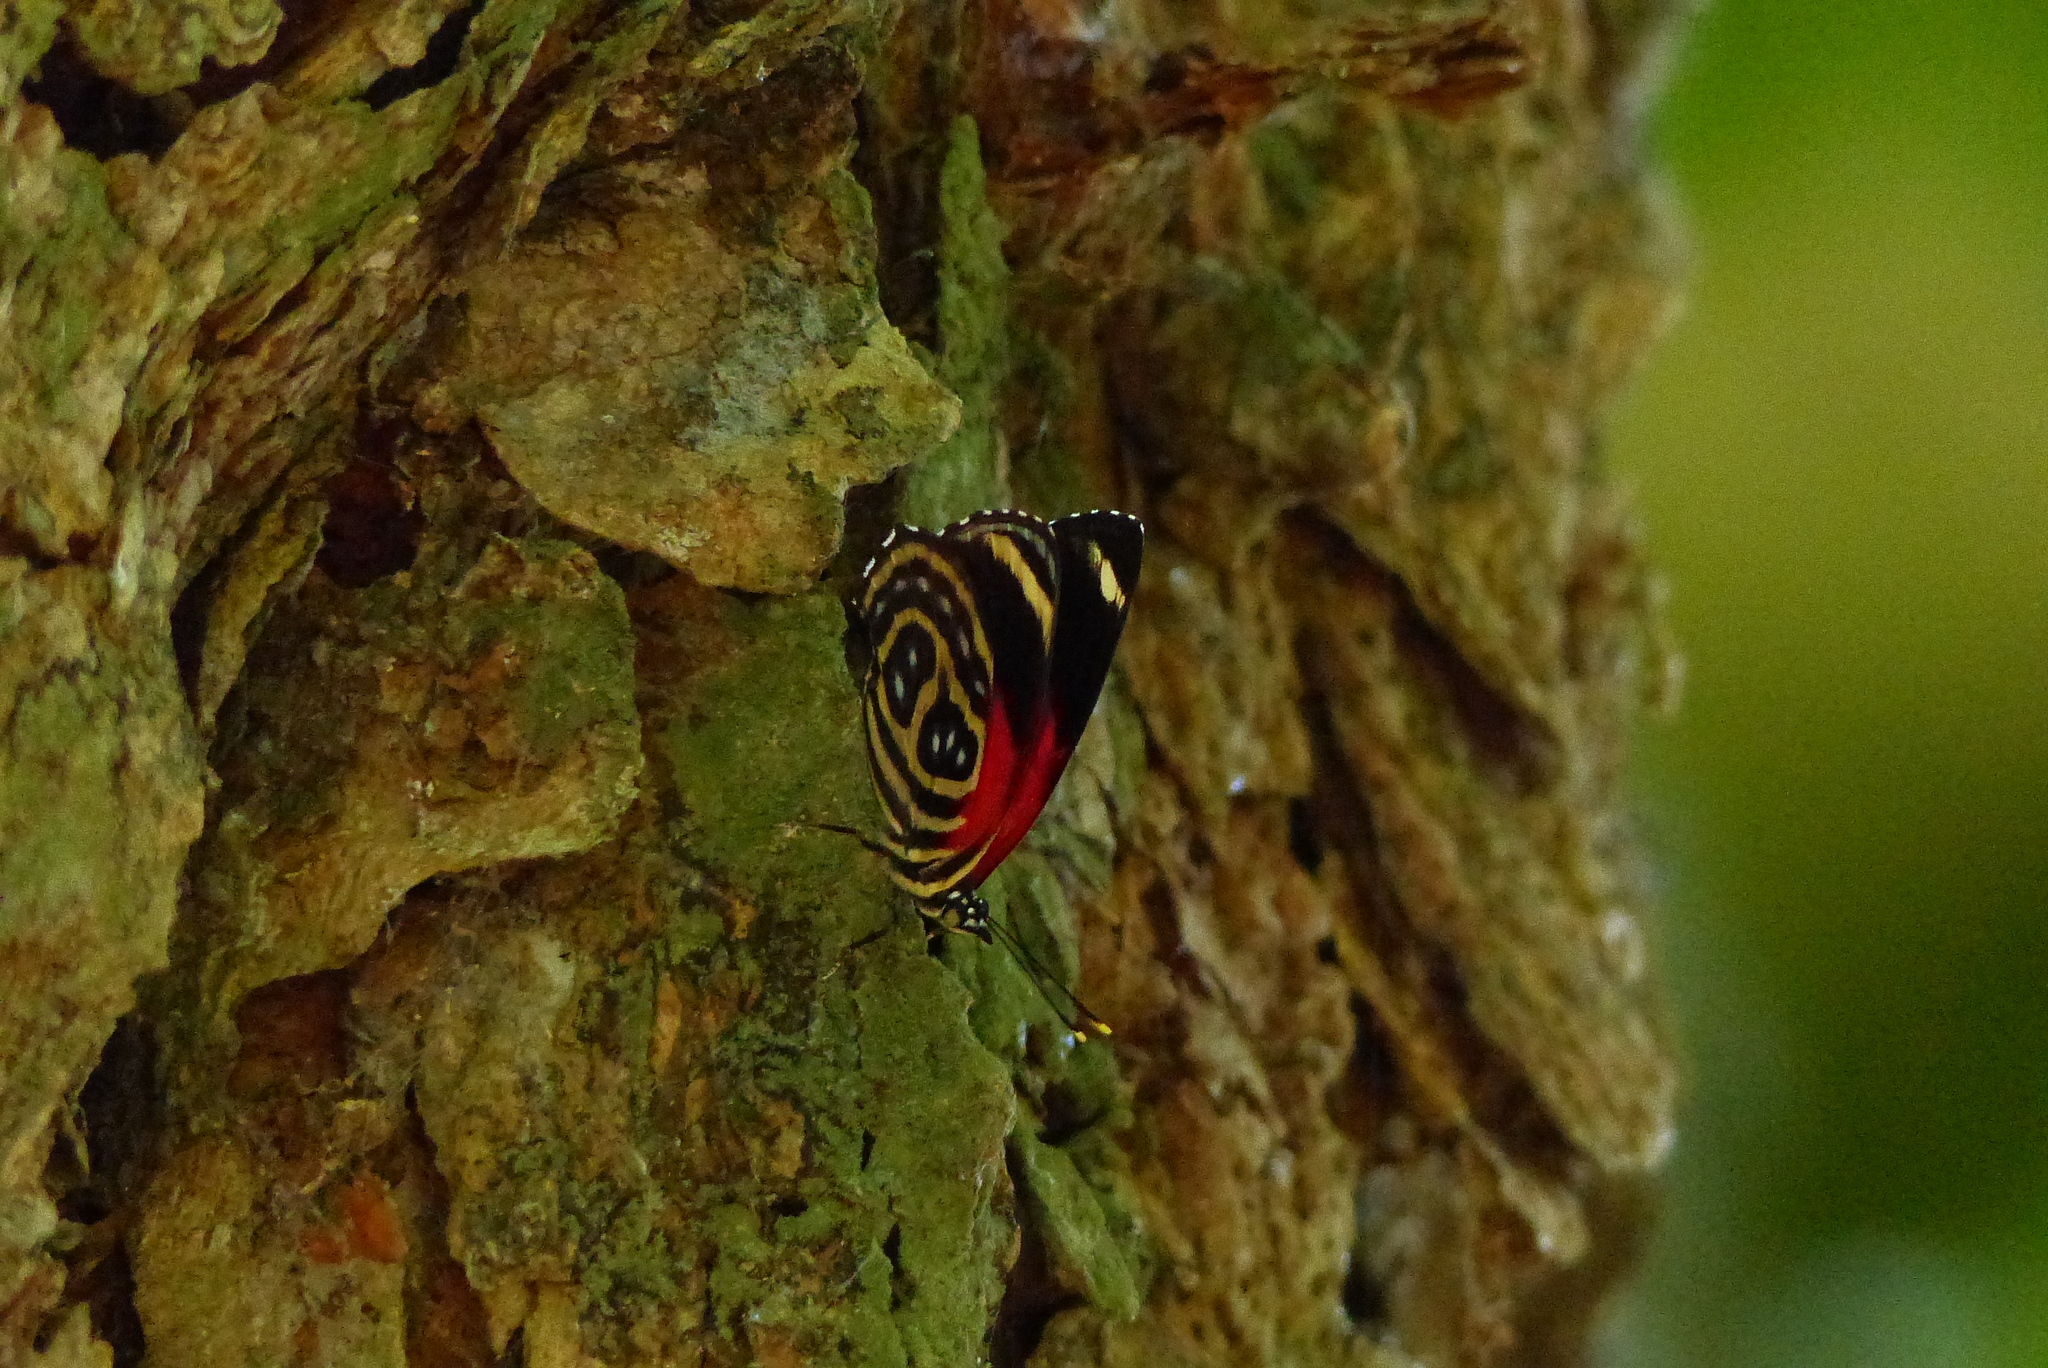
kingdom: Animalia
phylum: Arthropoda
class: Insecta
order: Lepidoptera
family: Nymphalidae
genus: Catagramma
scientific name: Catagramma pygas
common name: Godart's numberwing
